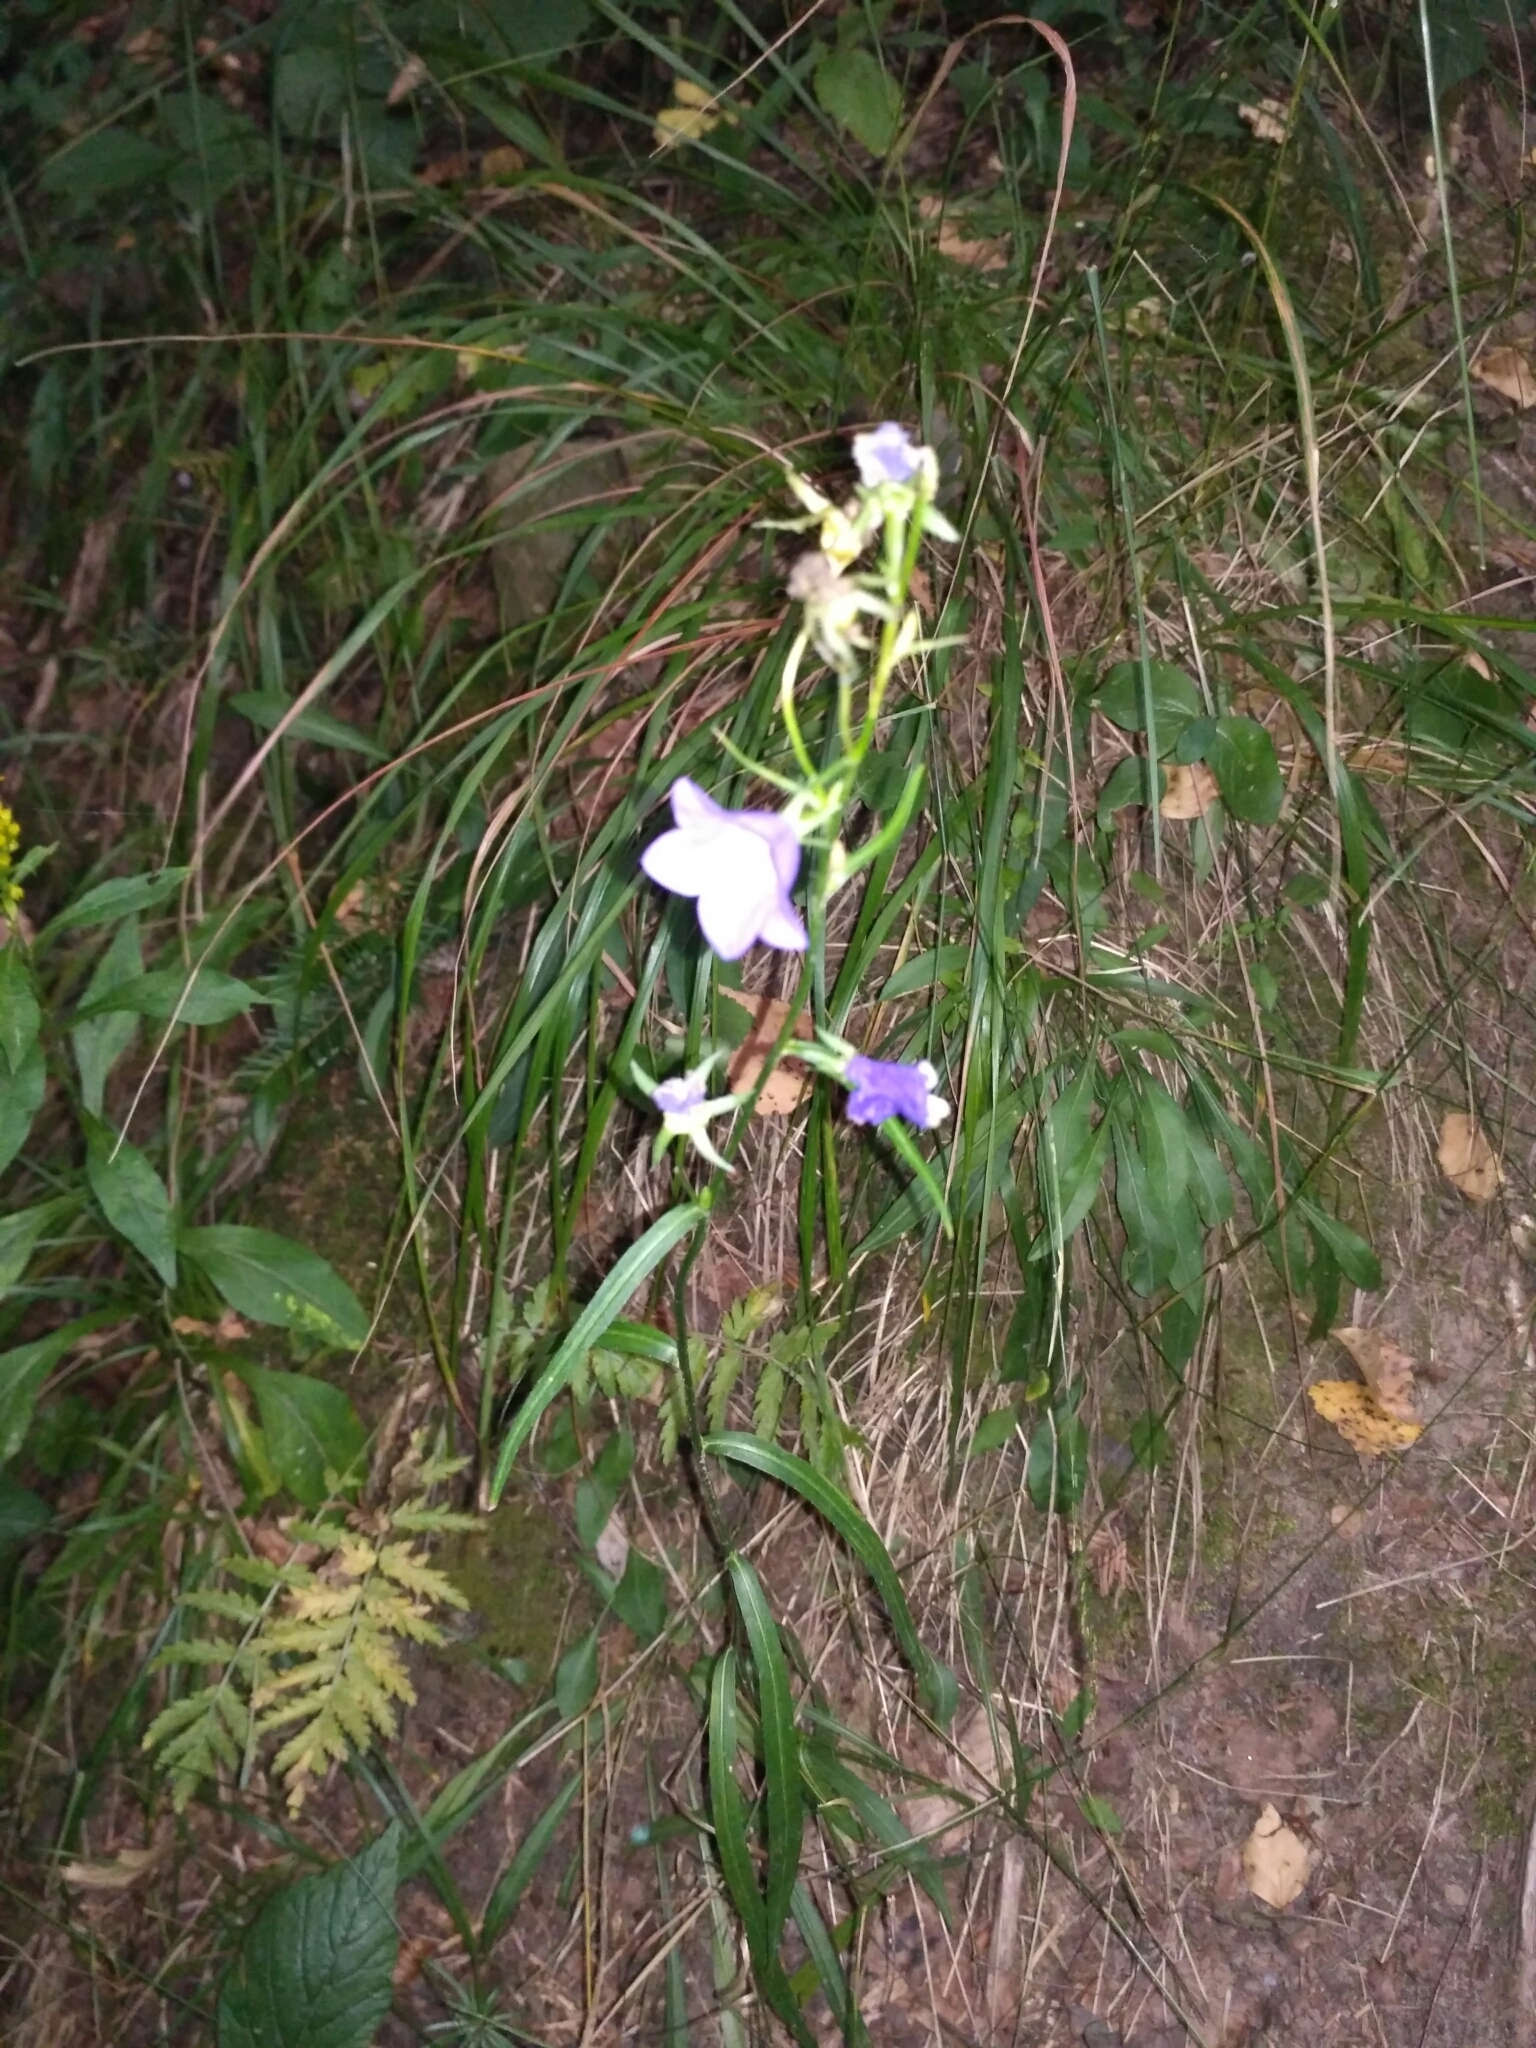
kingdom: Plantae
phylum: Tracheophyta
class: Magnoliopsida
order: Asterales
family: Campanulaceae
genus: Campanula
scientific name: Campanula persicifolia
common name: Peach-leaved bellflower
